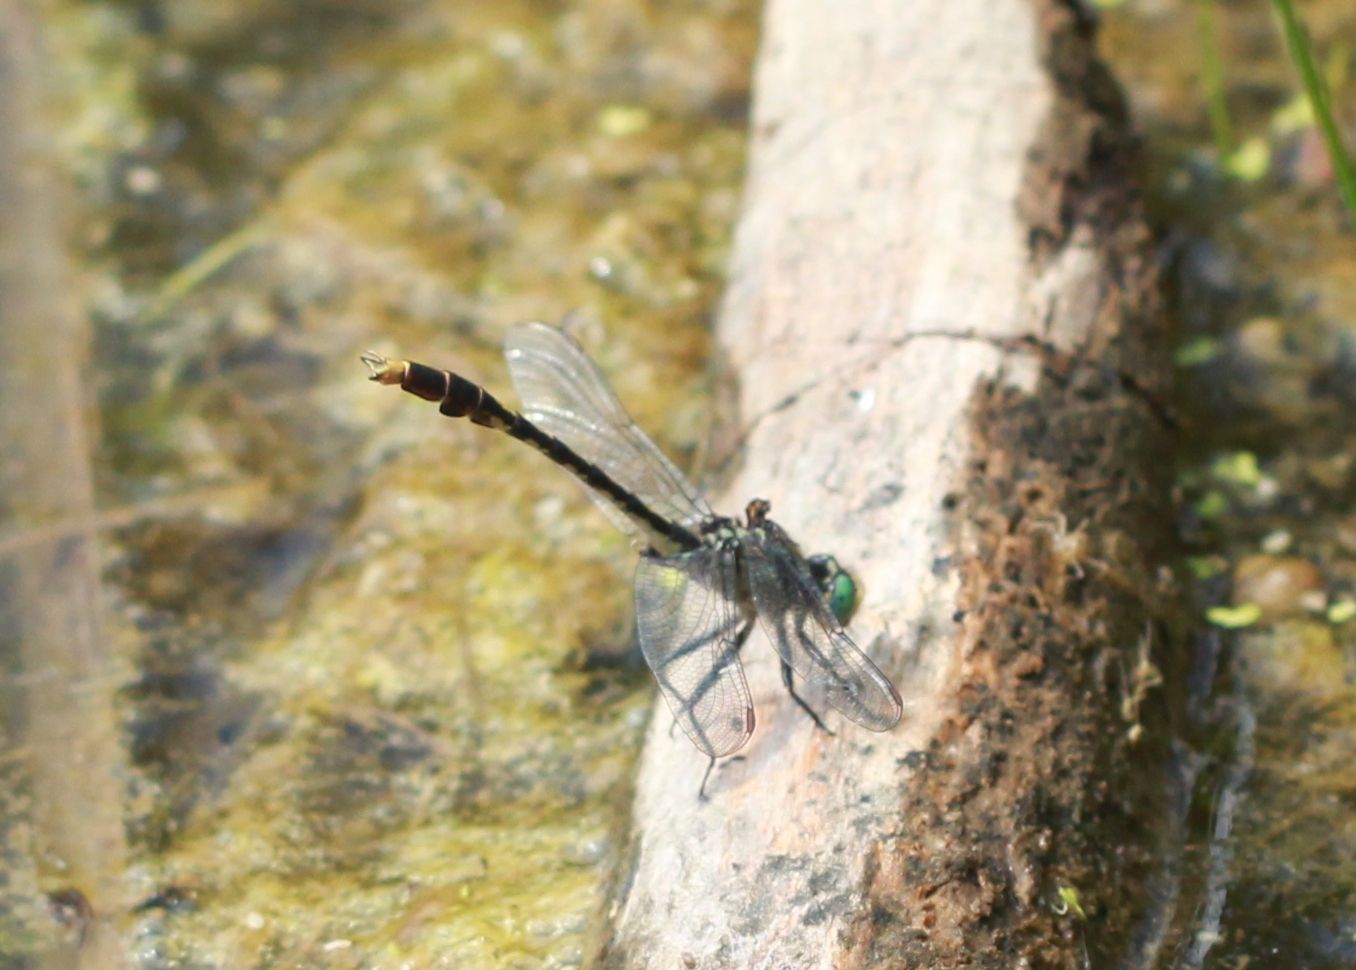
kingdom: Animalia
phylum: Arthropoda
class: Insecta
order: Odonata
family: Gomphidae
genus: Arigomphus
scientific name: Arigomphus villosipes
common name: Unicorn clubtail
